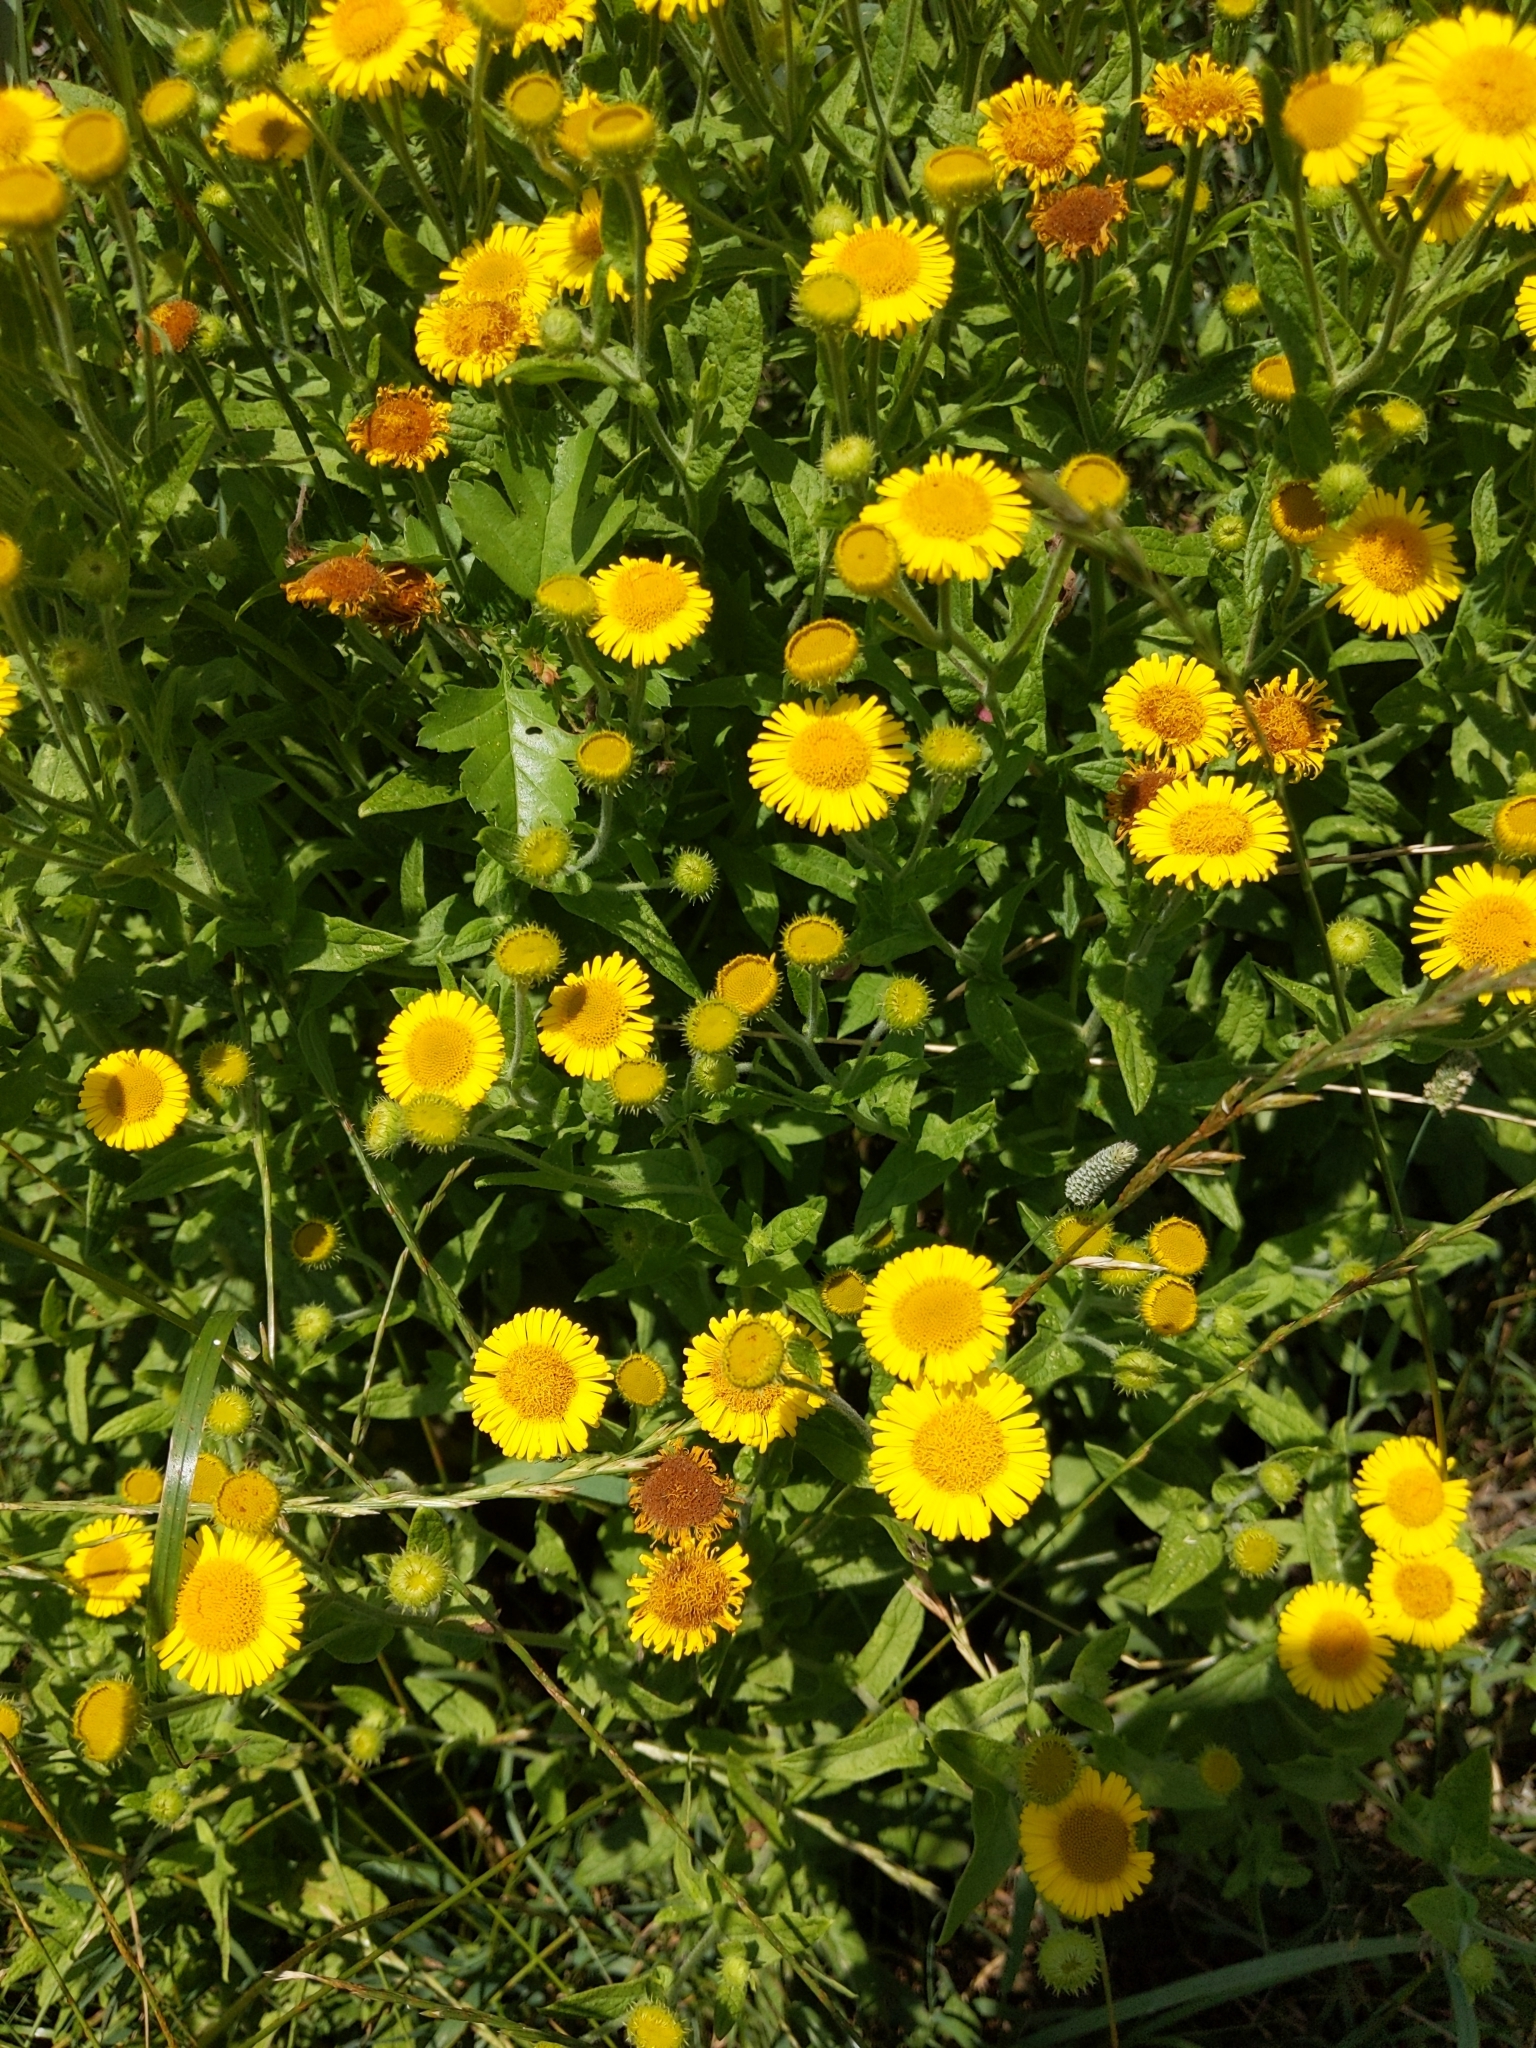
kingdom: Plantae
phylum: Tracheophyta
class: Magnoliopsida
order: Asterales
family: Asteraceae
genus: Pulicaria
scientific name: Pulicaria dysenterica
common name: Common fleabane
